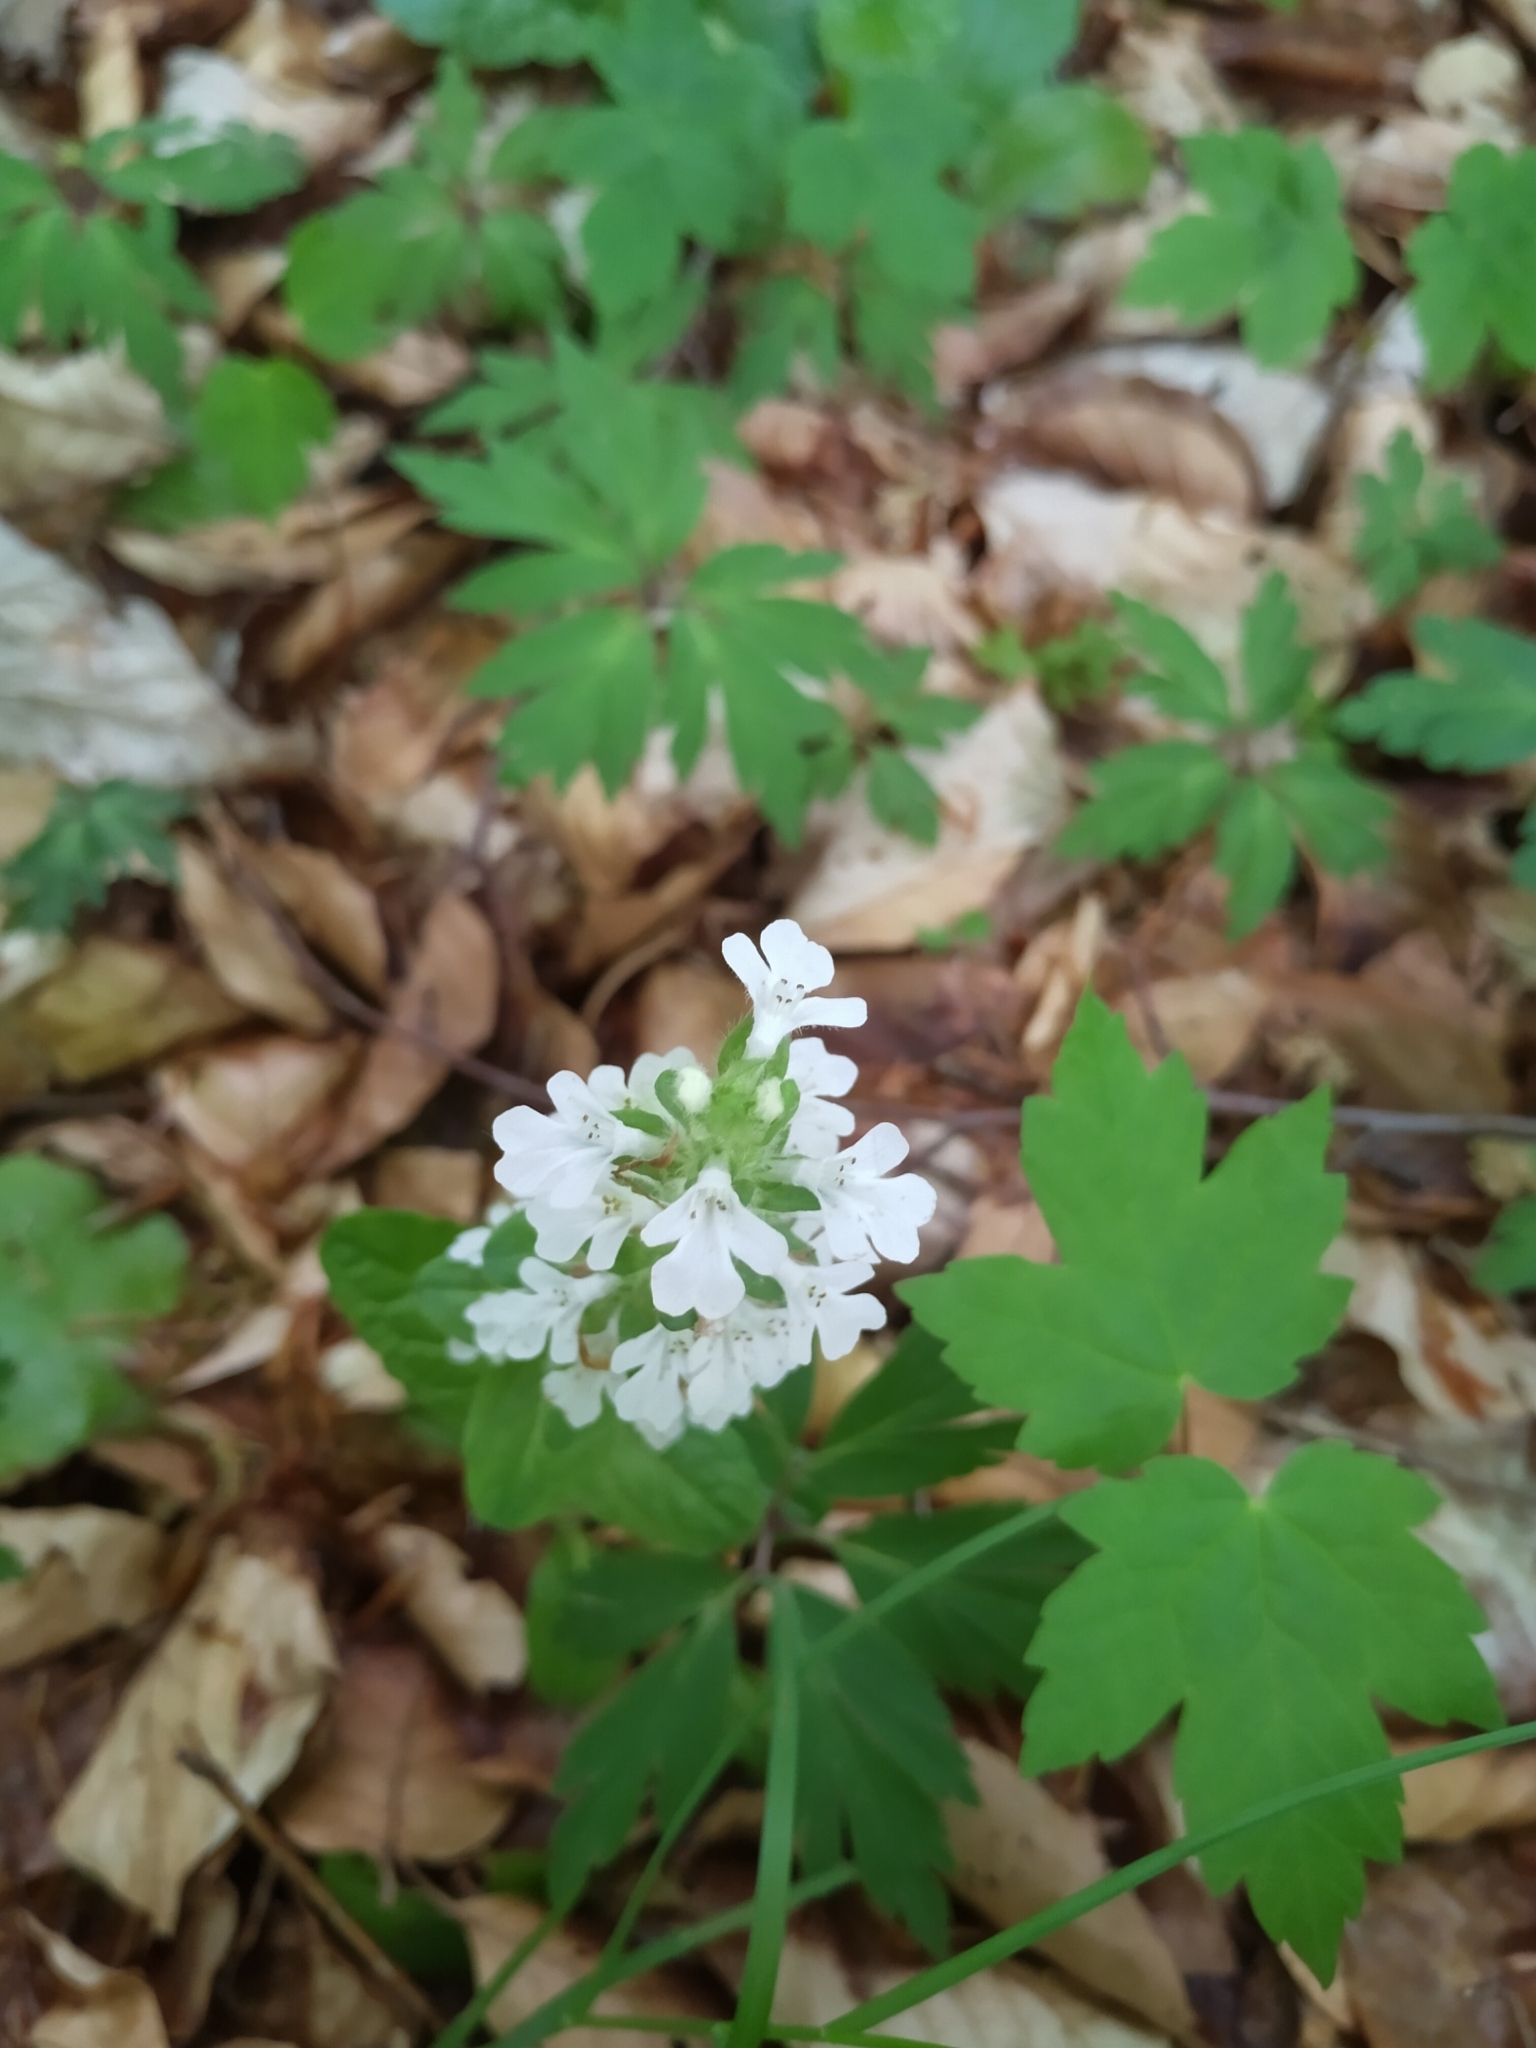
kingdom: Plantae
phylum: Tracheophyta
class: Magnoliopsida
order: Lamiales
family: Lamiaceae
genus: Ajuga
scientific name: Ajuga reptans
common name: Bugle
